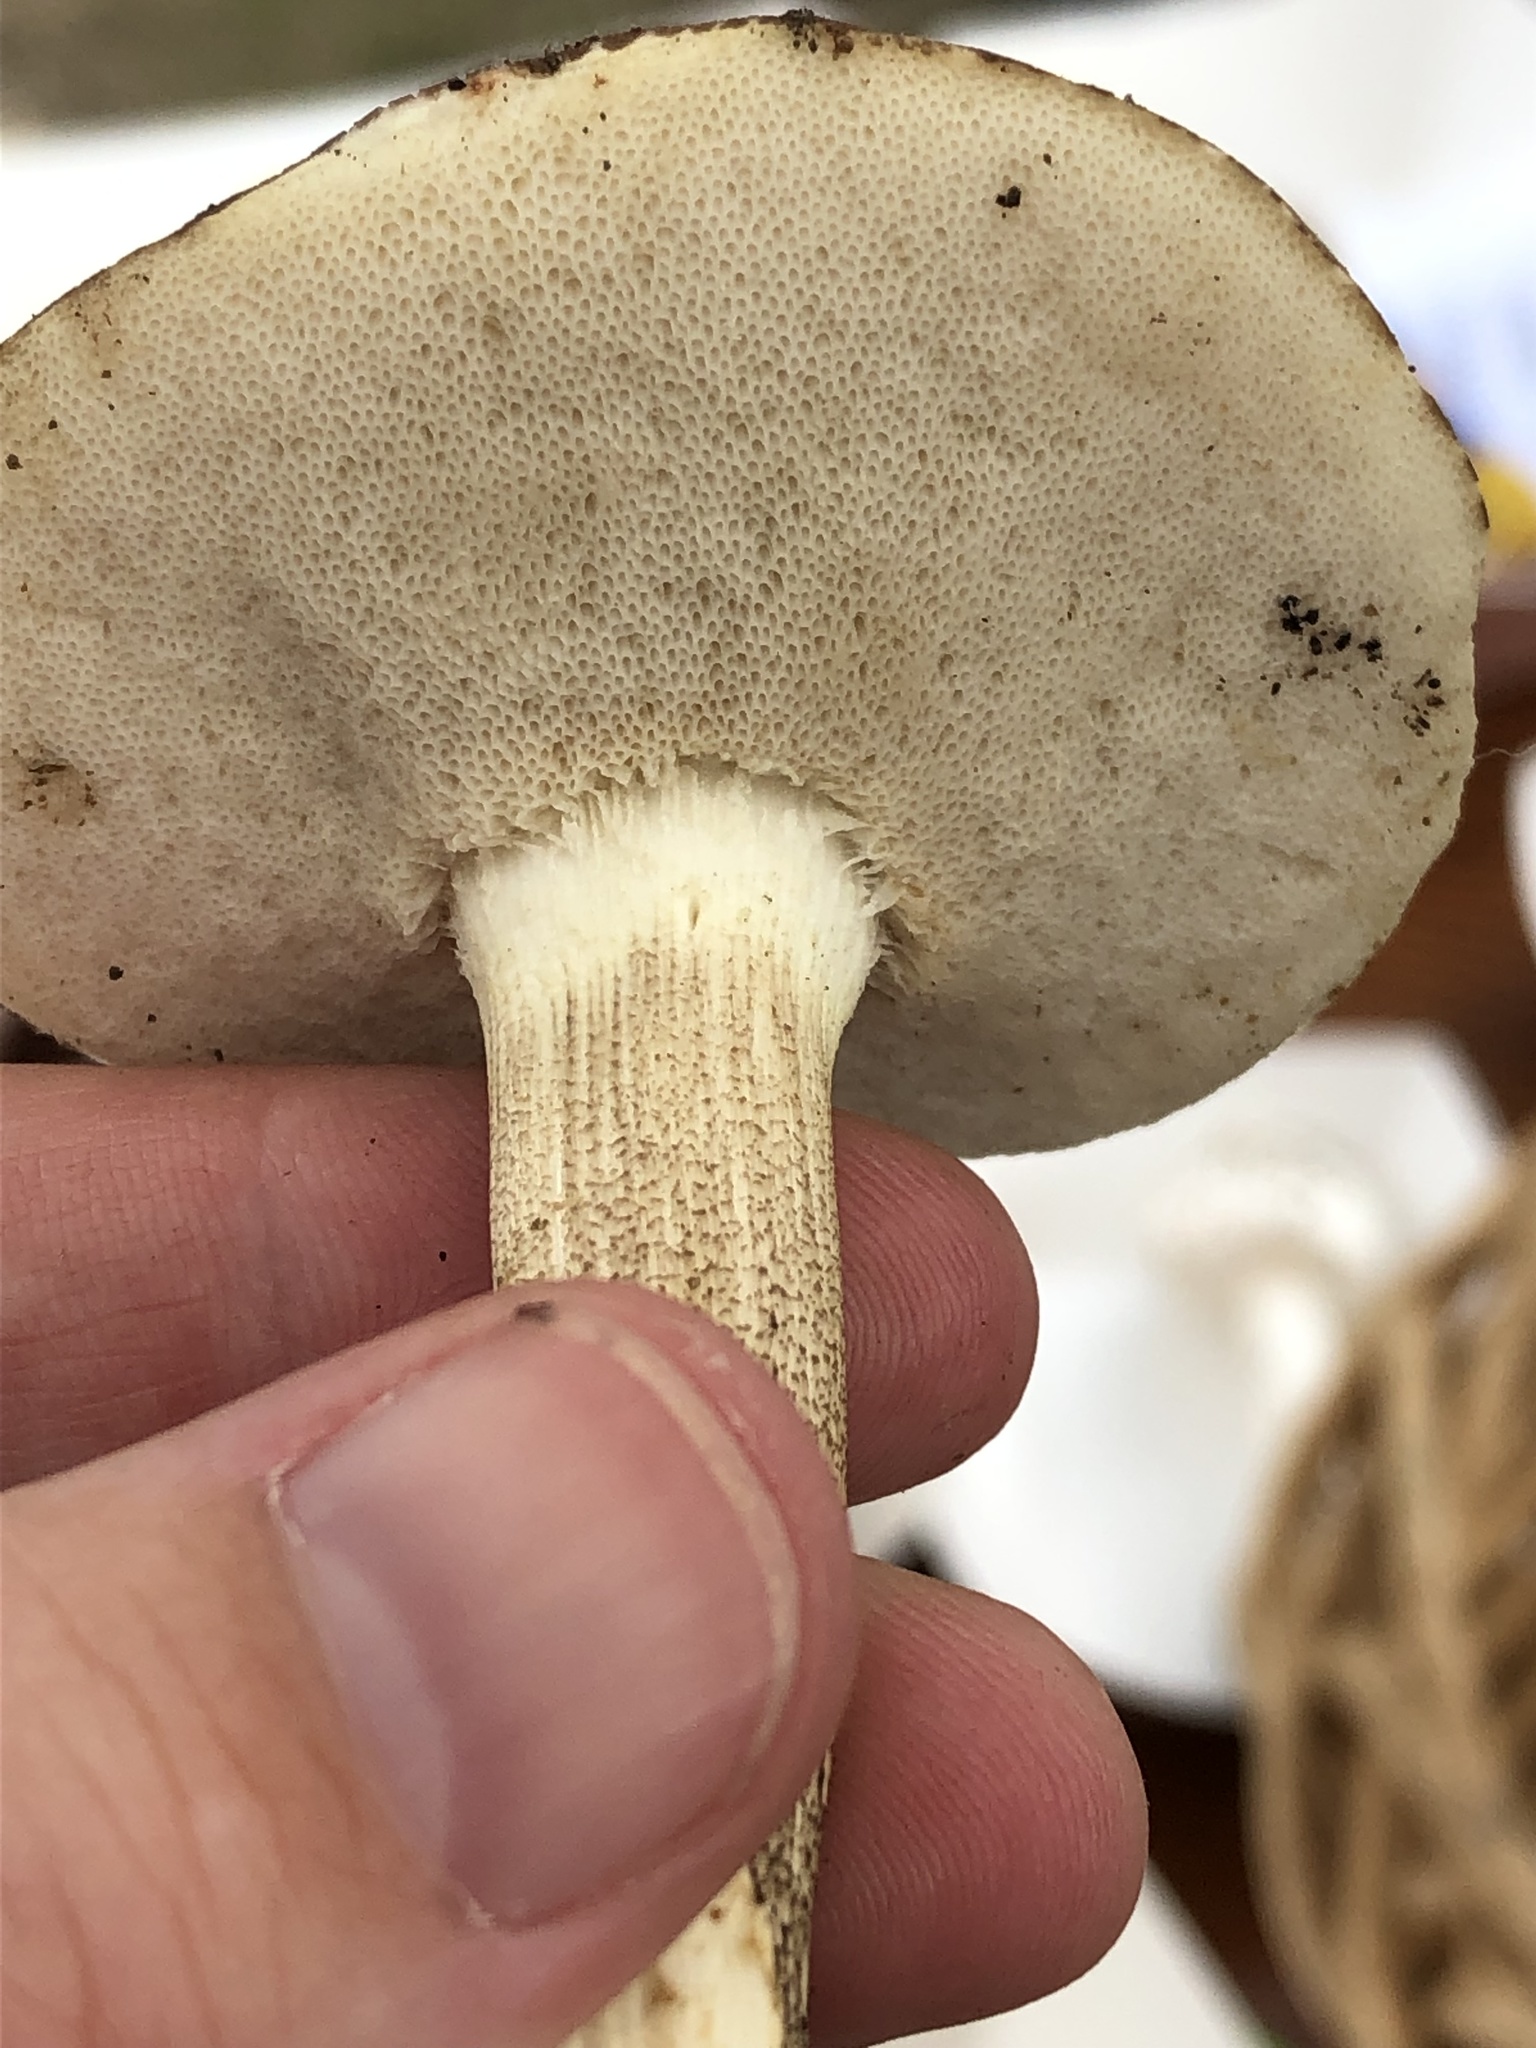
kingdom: Fungi
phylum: Basidiomycota
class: Agaricomycetes
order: Boletales
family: Boletaceae
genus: Leccinellum
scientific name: Leccinellum albellum
